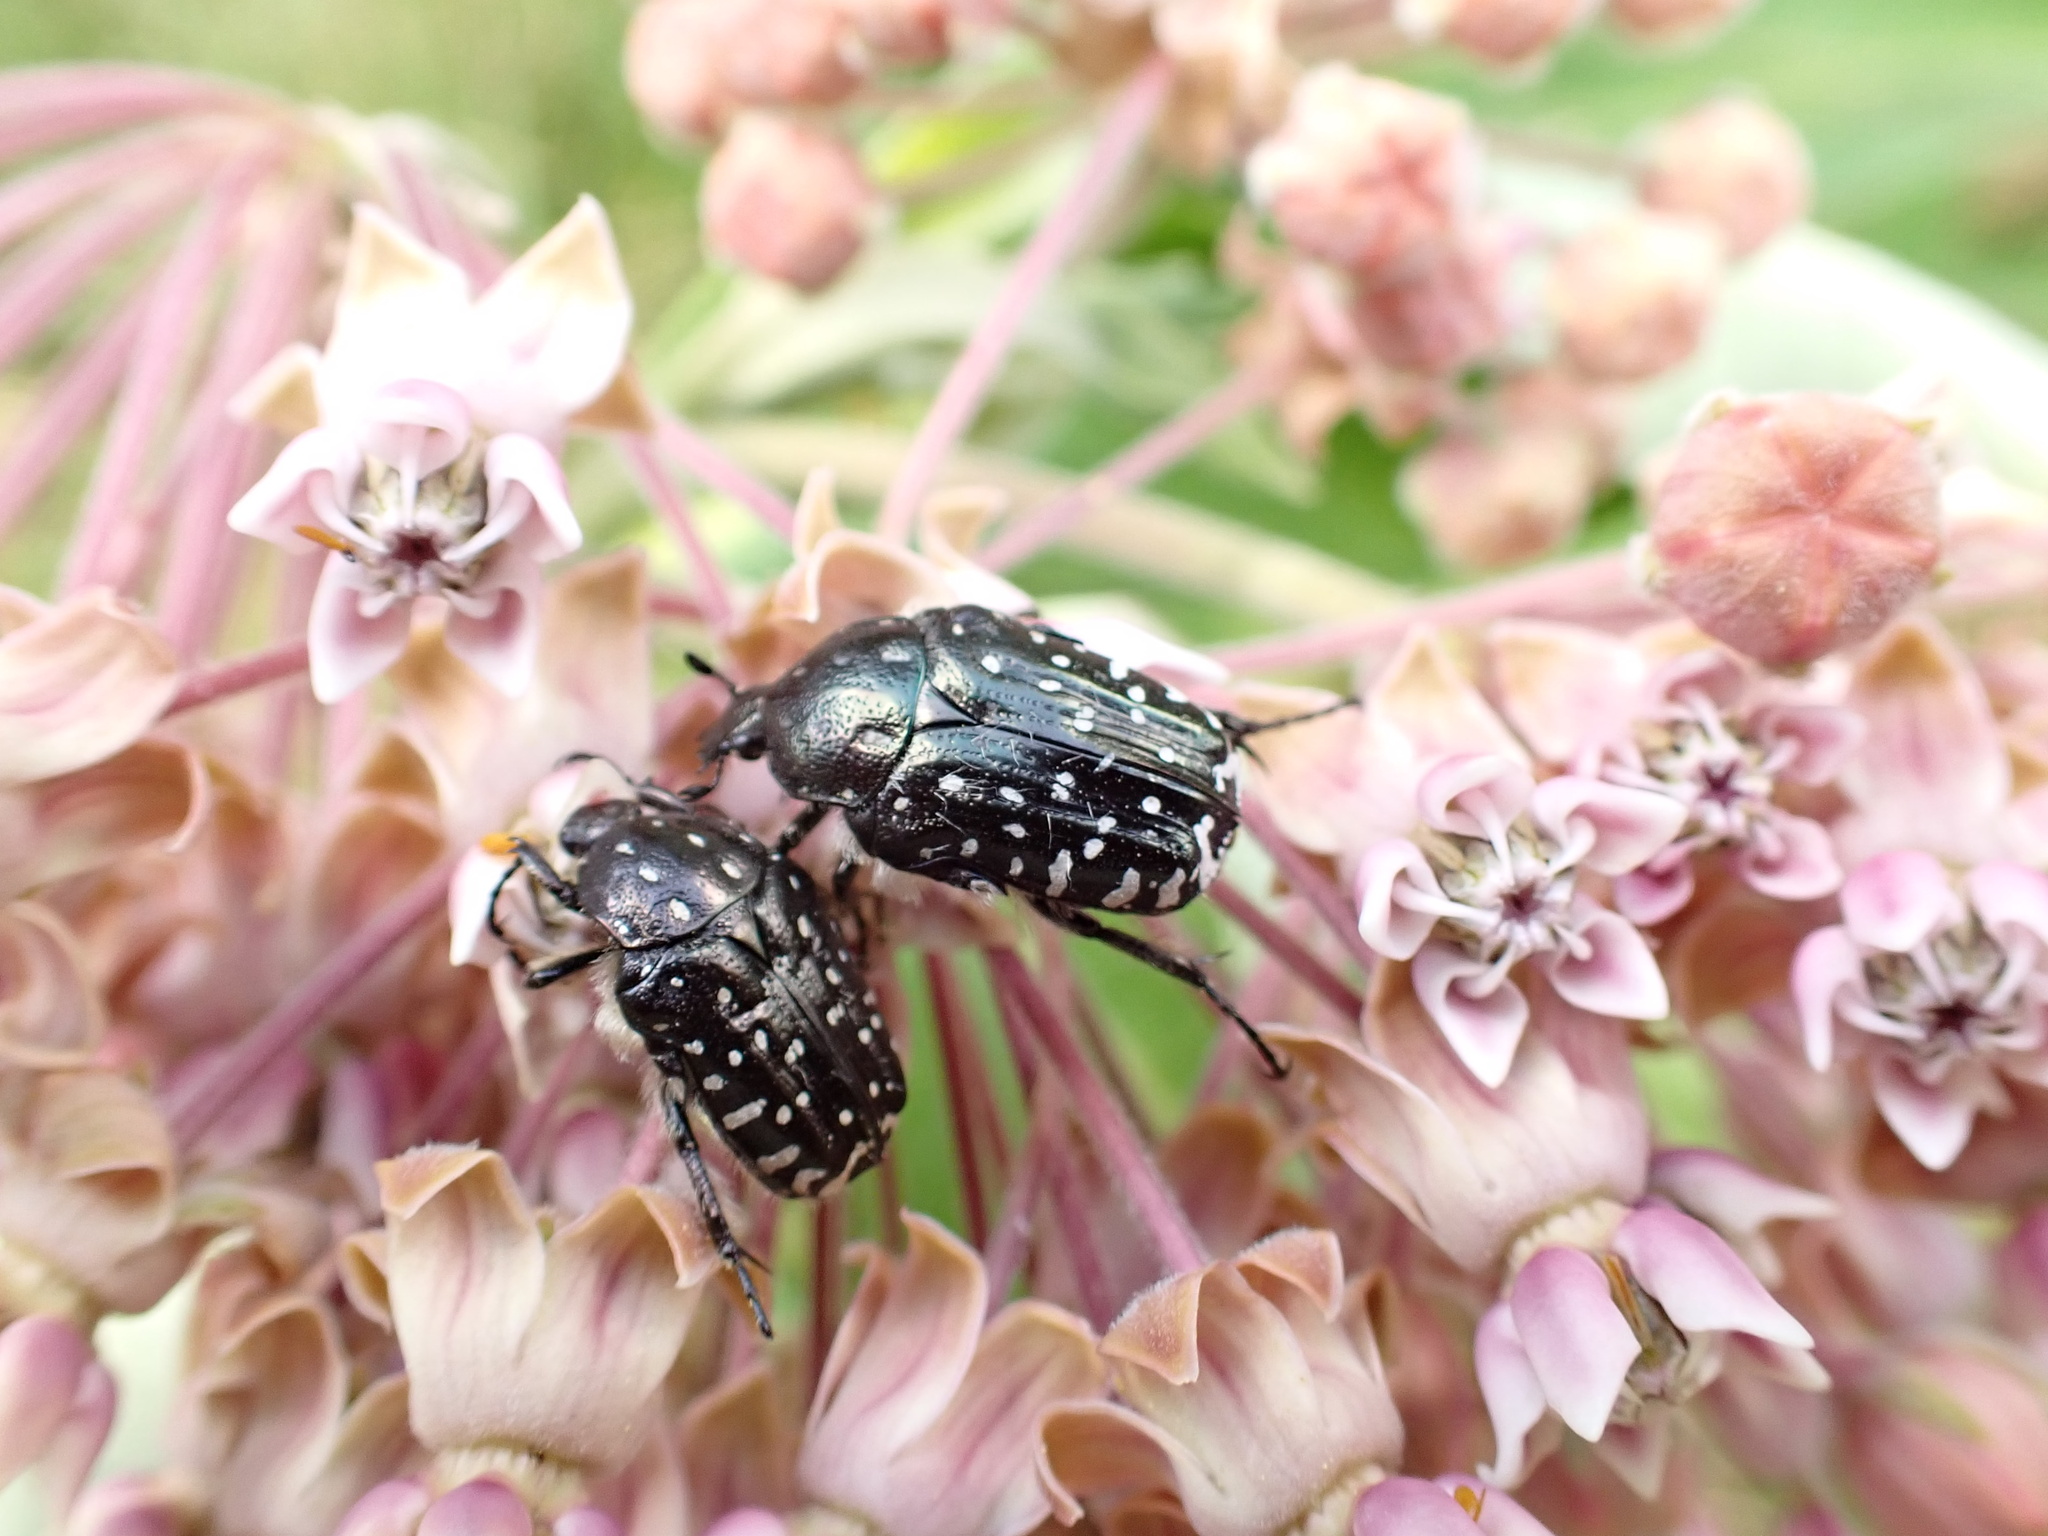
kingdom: Animalia
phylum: Arthropoda
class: Insecta
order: Coleoptera
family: Scarabaeidae
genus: Oxythyrea
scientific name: Oxythyrea funesta
